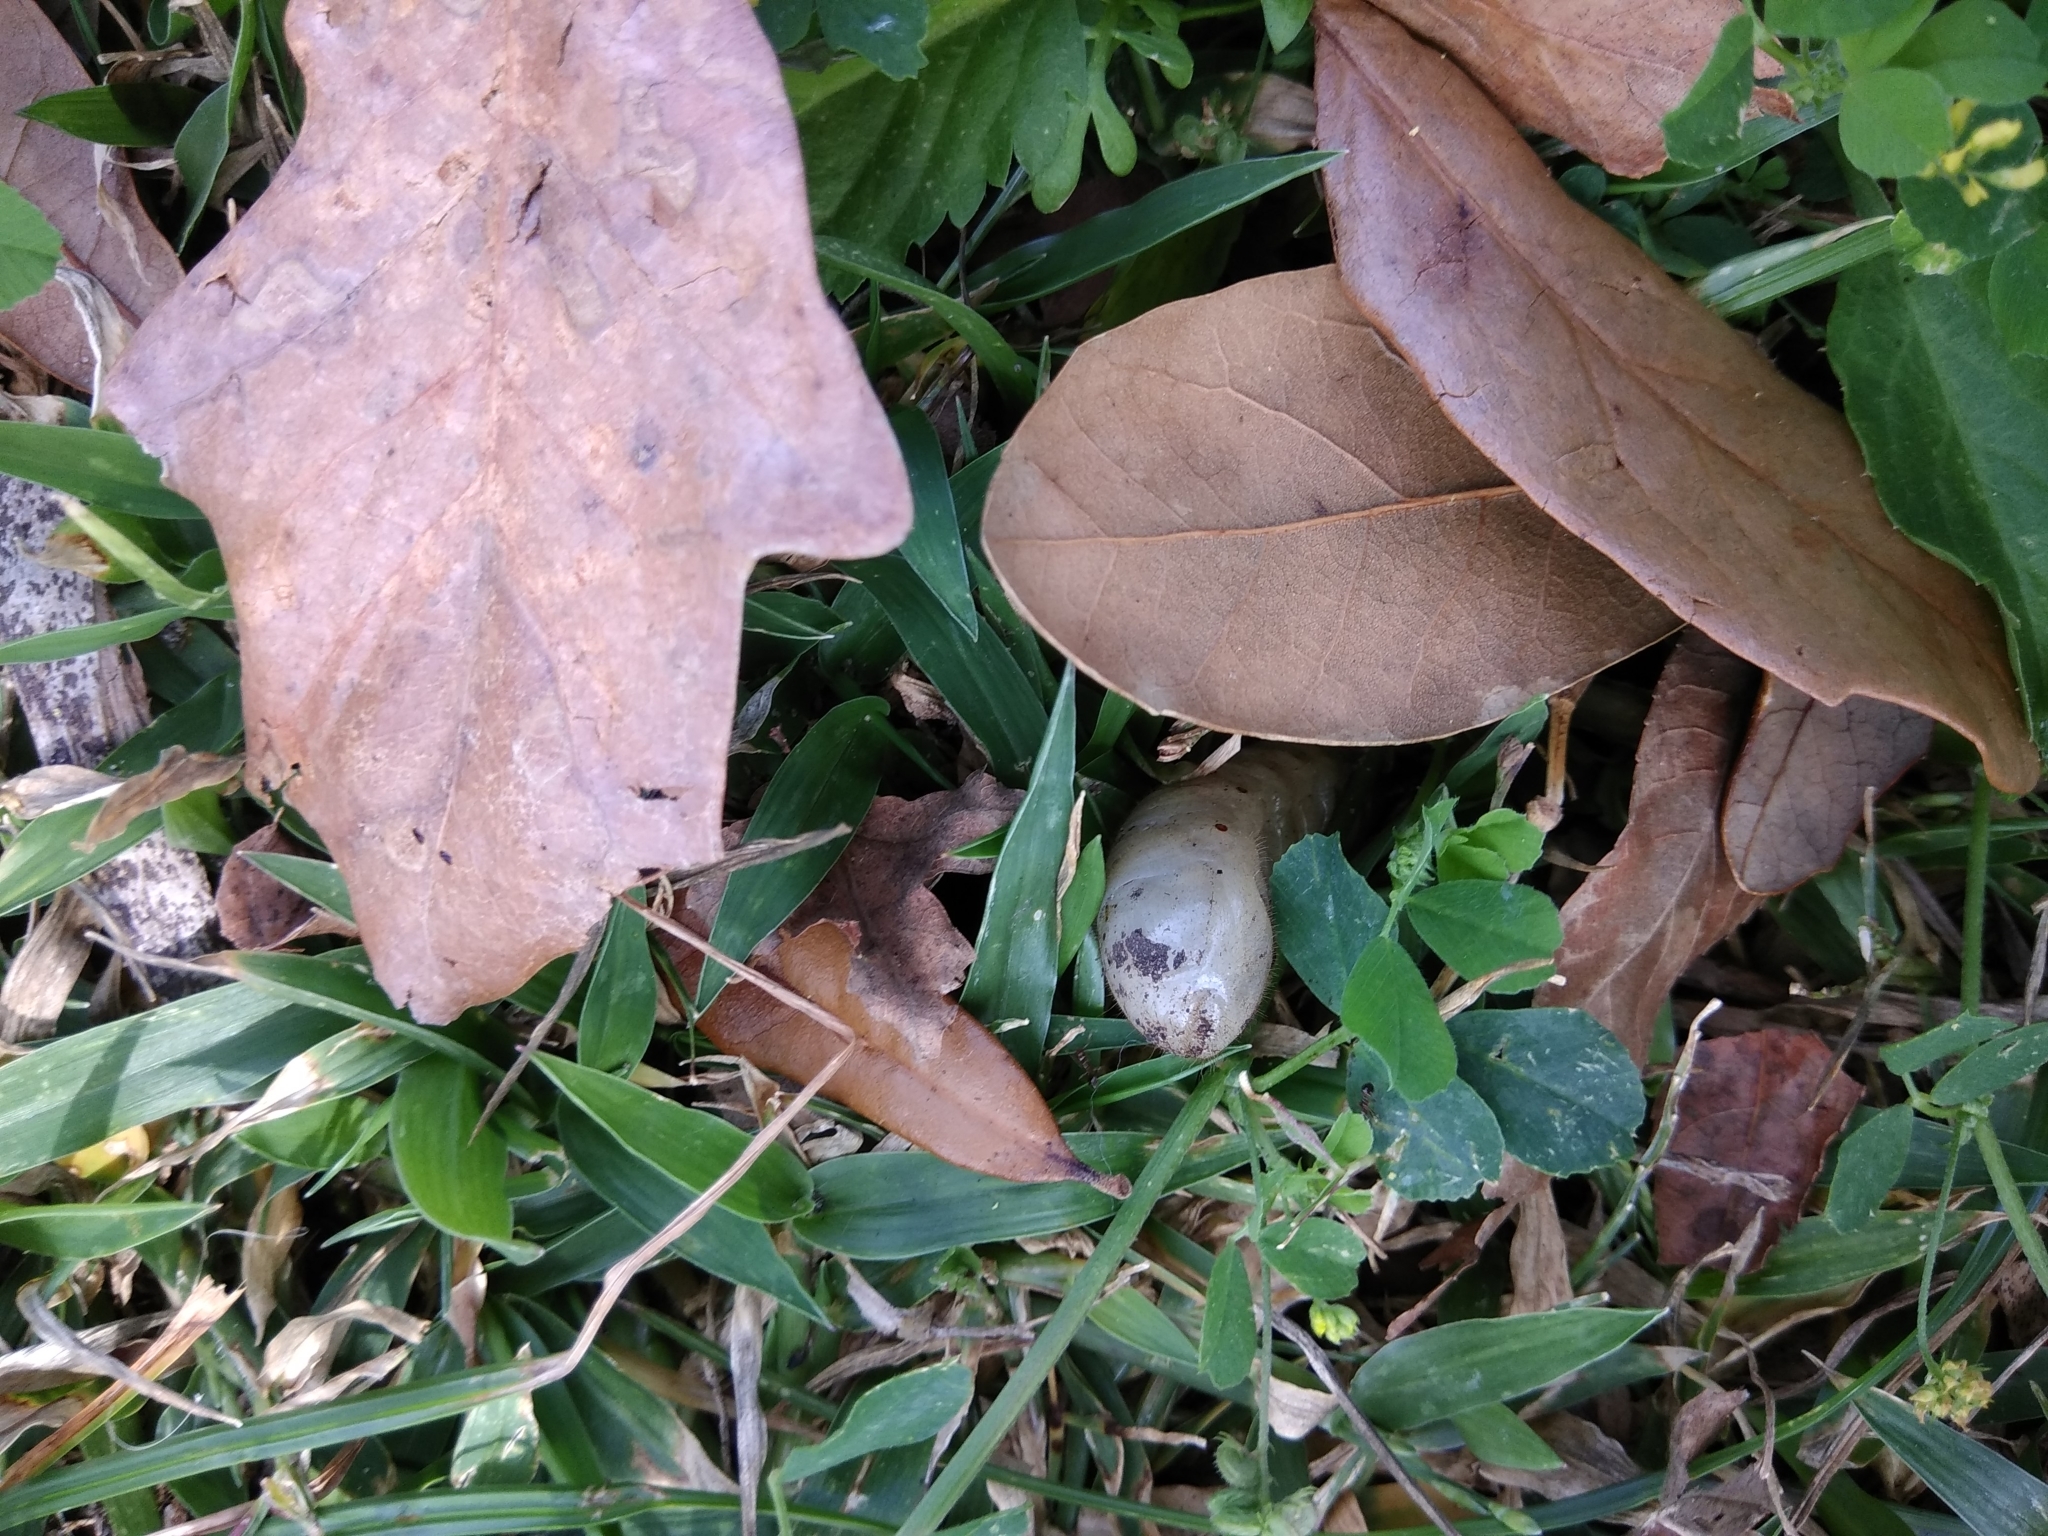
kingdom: Animalia
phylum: Arthropoda
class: Insecta
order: Coleoptera
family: Scarabaeidae
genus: Cotinis
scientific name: Cotinis nitida
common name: Common green june beetle
